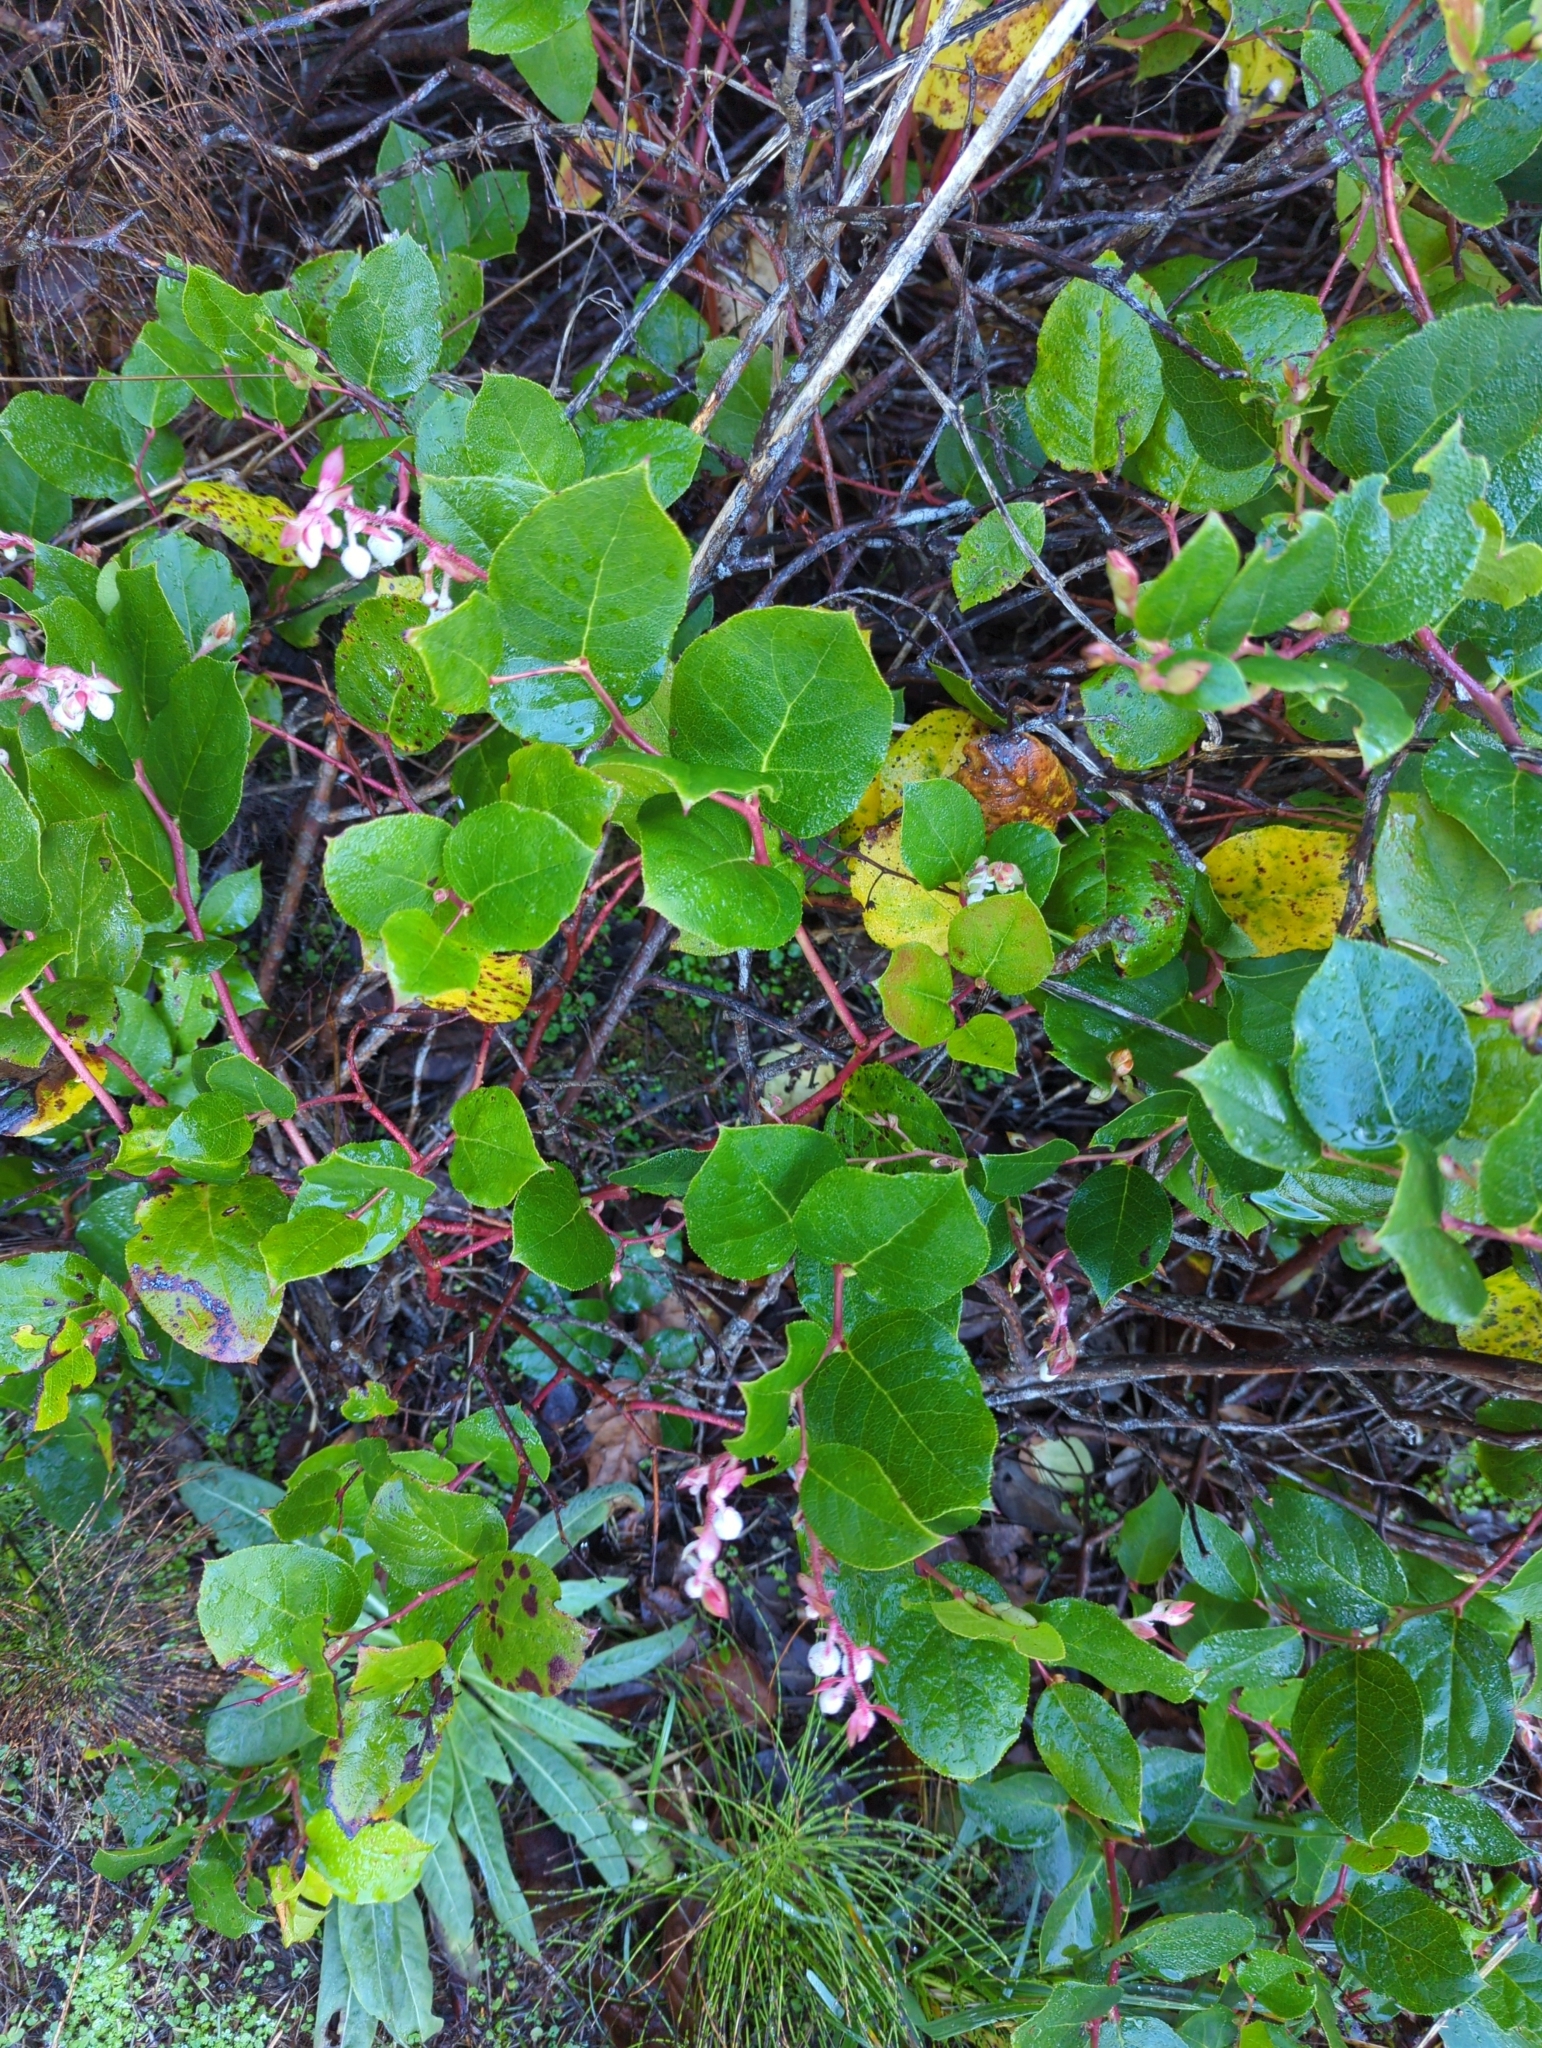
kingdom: Plantae
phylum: Tracheophyta
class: Magnoliopsida
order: Ericales
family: Ericaceae
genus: Gaultheria
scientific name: Gaultheria shallon
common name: Shallon
